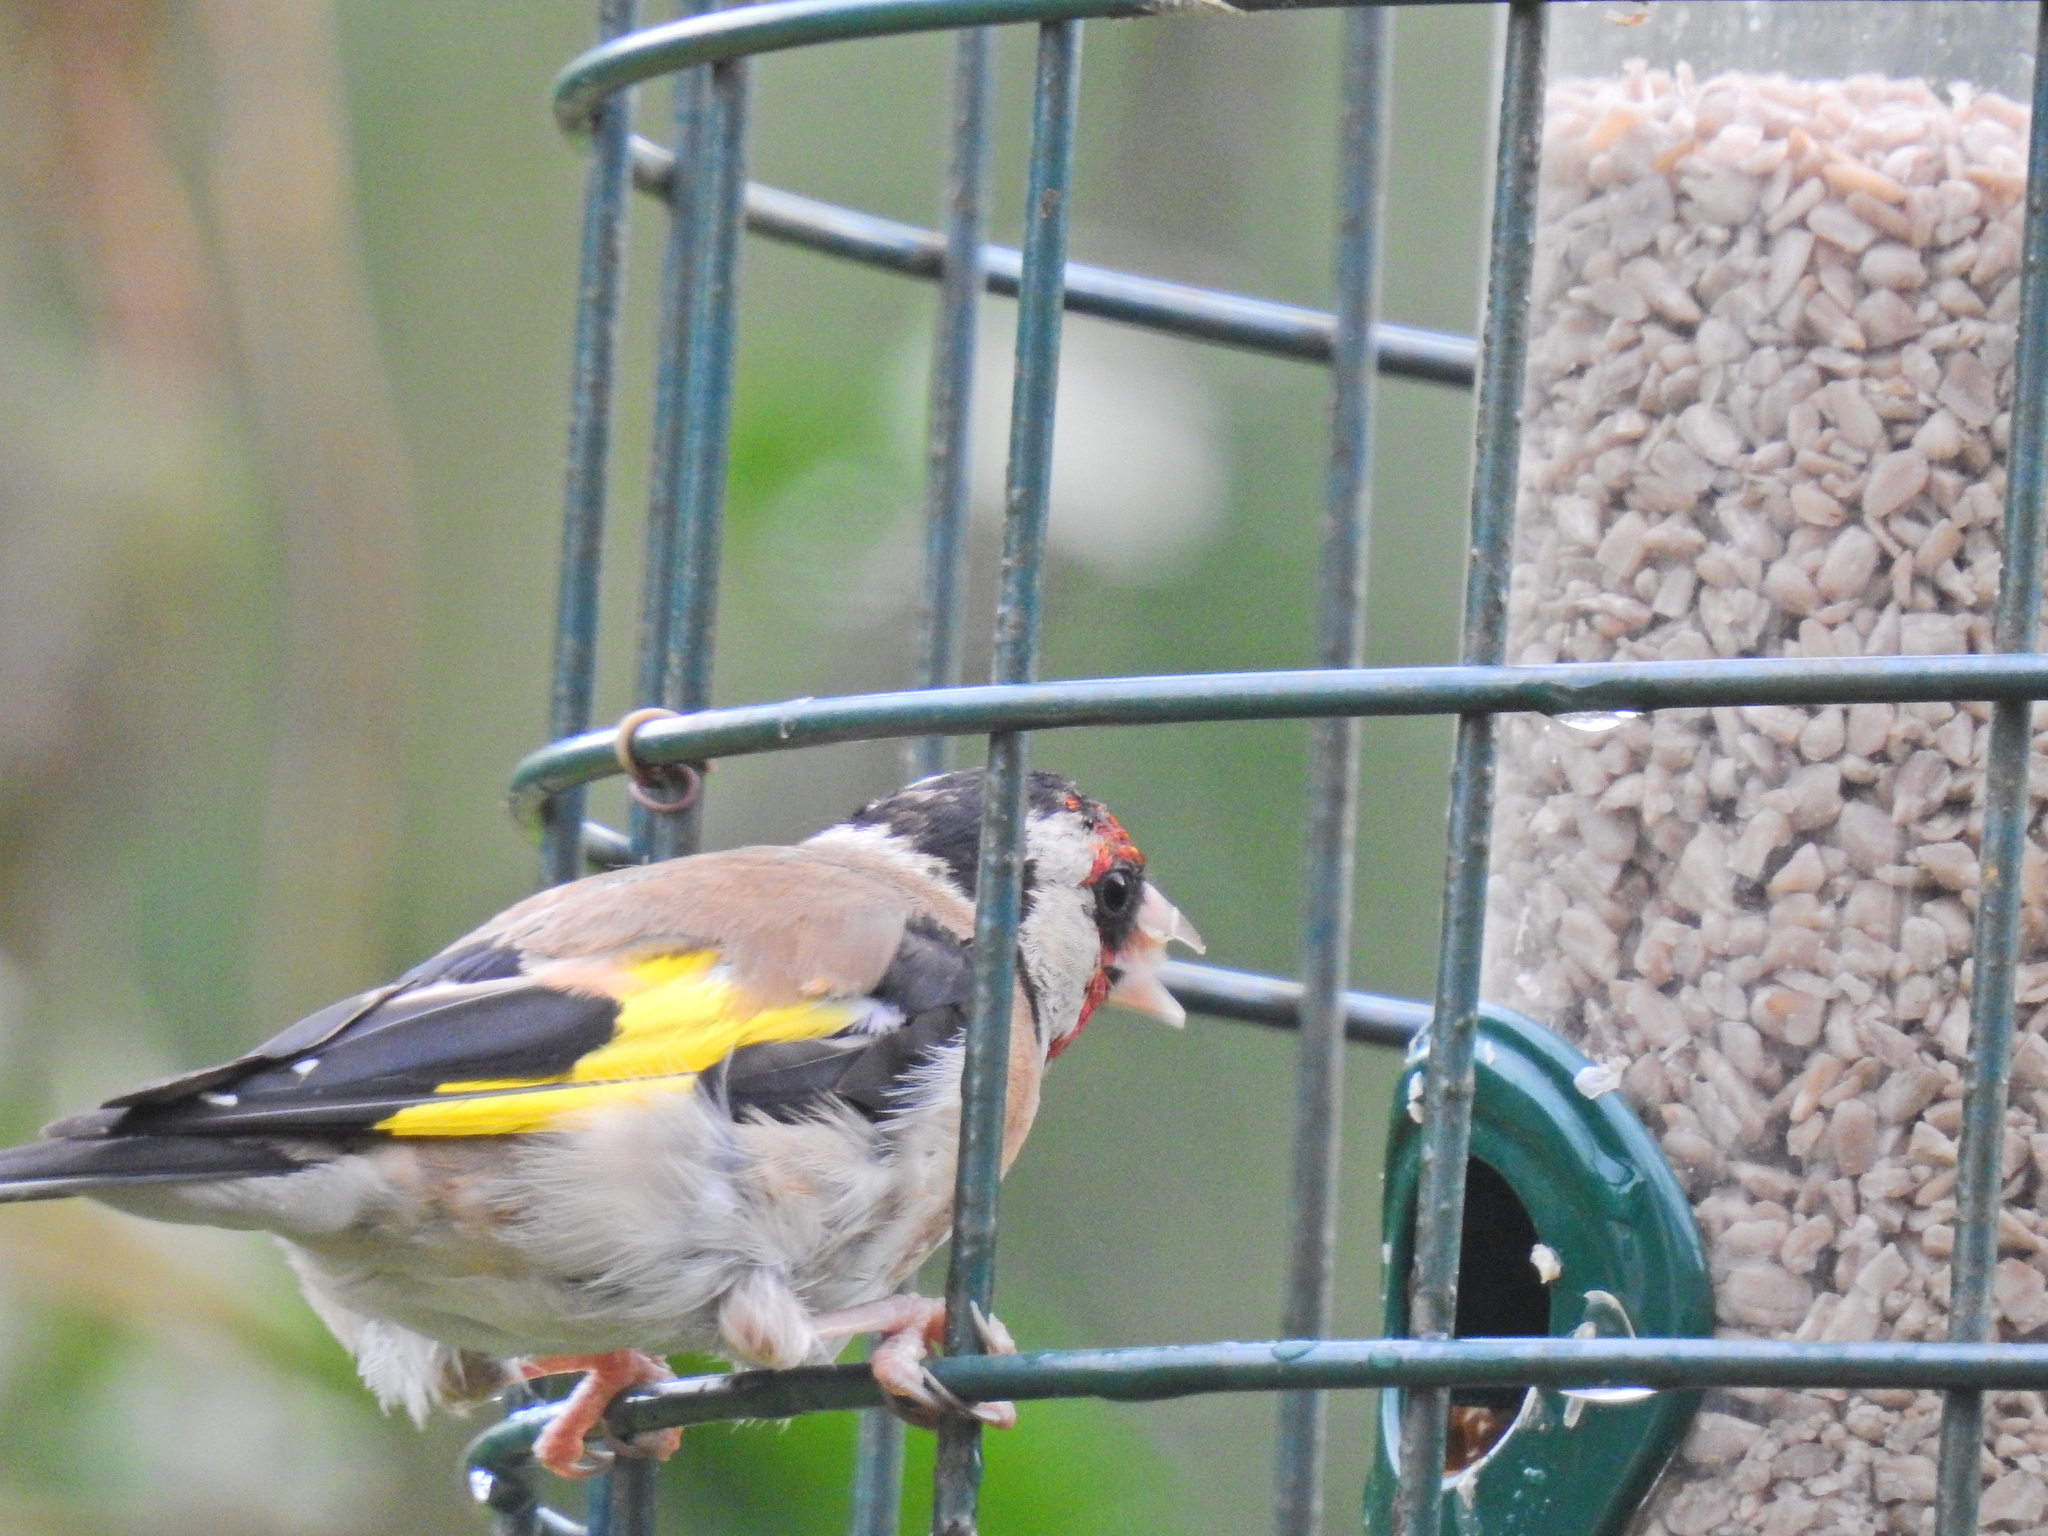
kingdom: Animalia
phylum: Chordata
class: Aves
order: Passeriformes
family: Fringillidae
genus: Carduelis
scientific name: Carduelis carduelis
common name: European goldfinch
